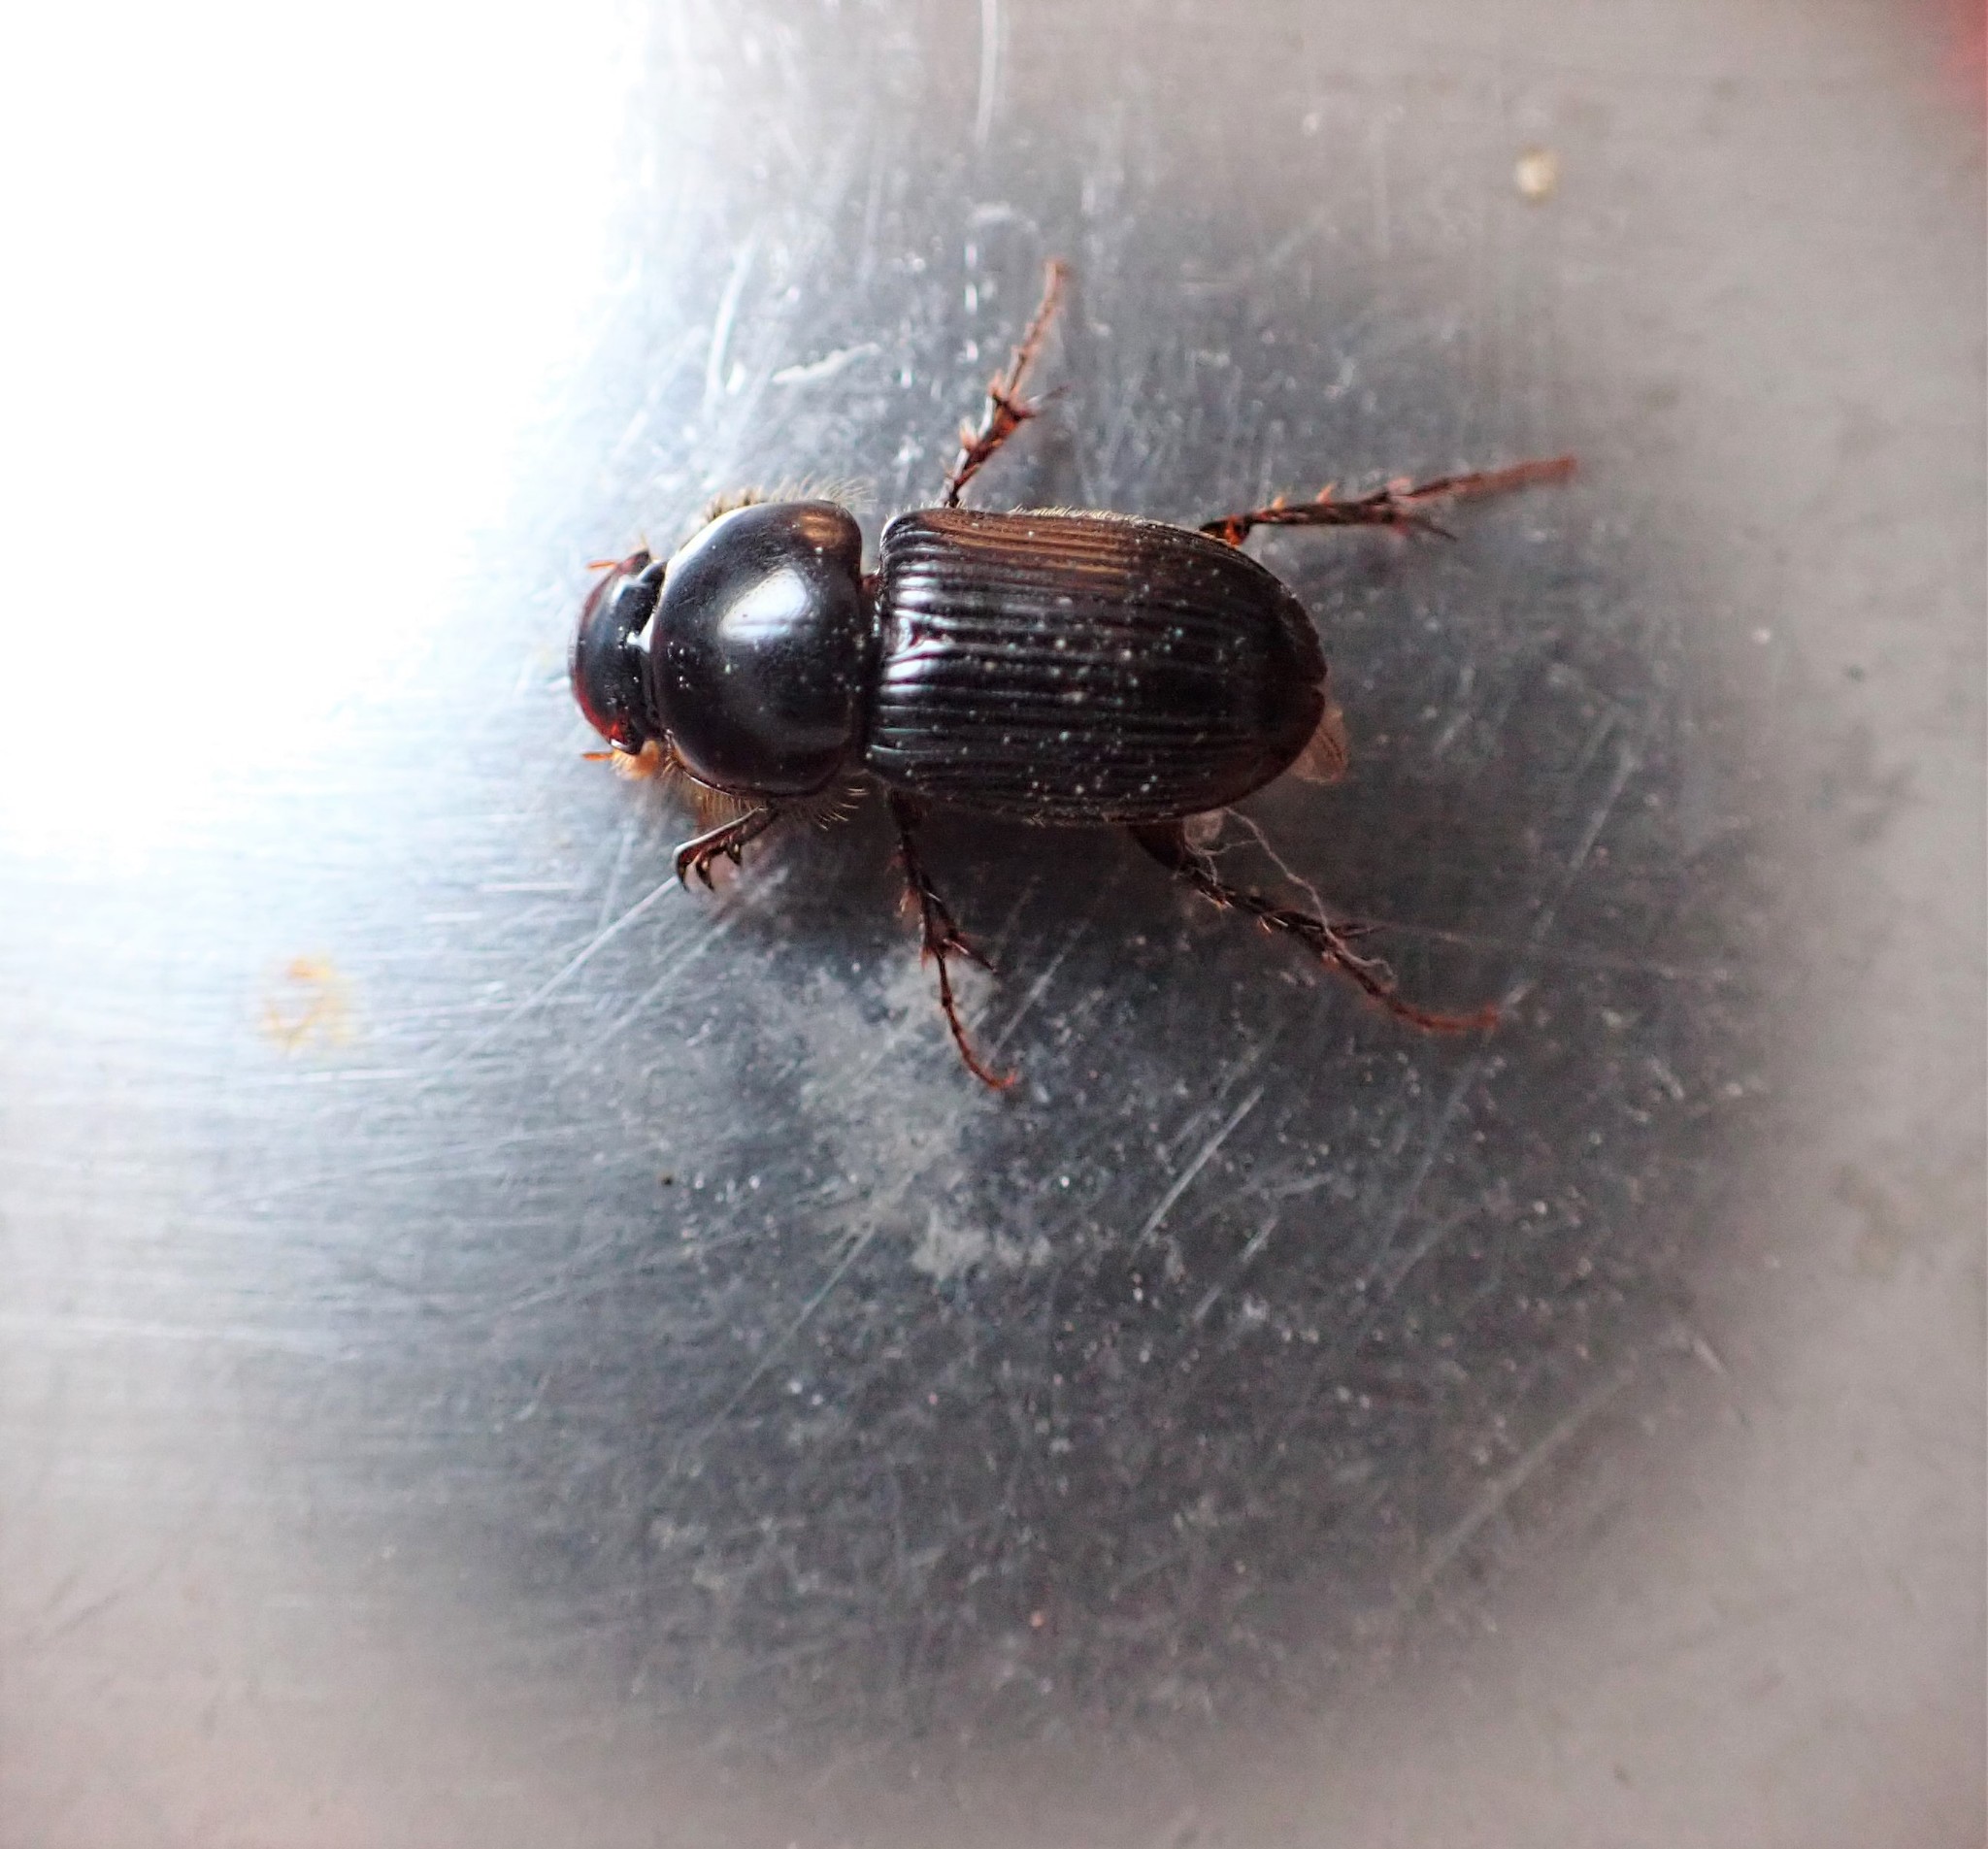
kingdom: Animalia
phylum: Arthropoda
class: Insecta
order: Coleoptera
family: Scarabaeidae
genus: Acrossidius
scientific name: Acrossidius tasmaniae
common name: Black-headed pasture cockchafer
